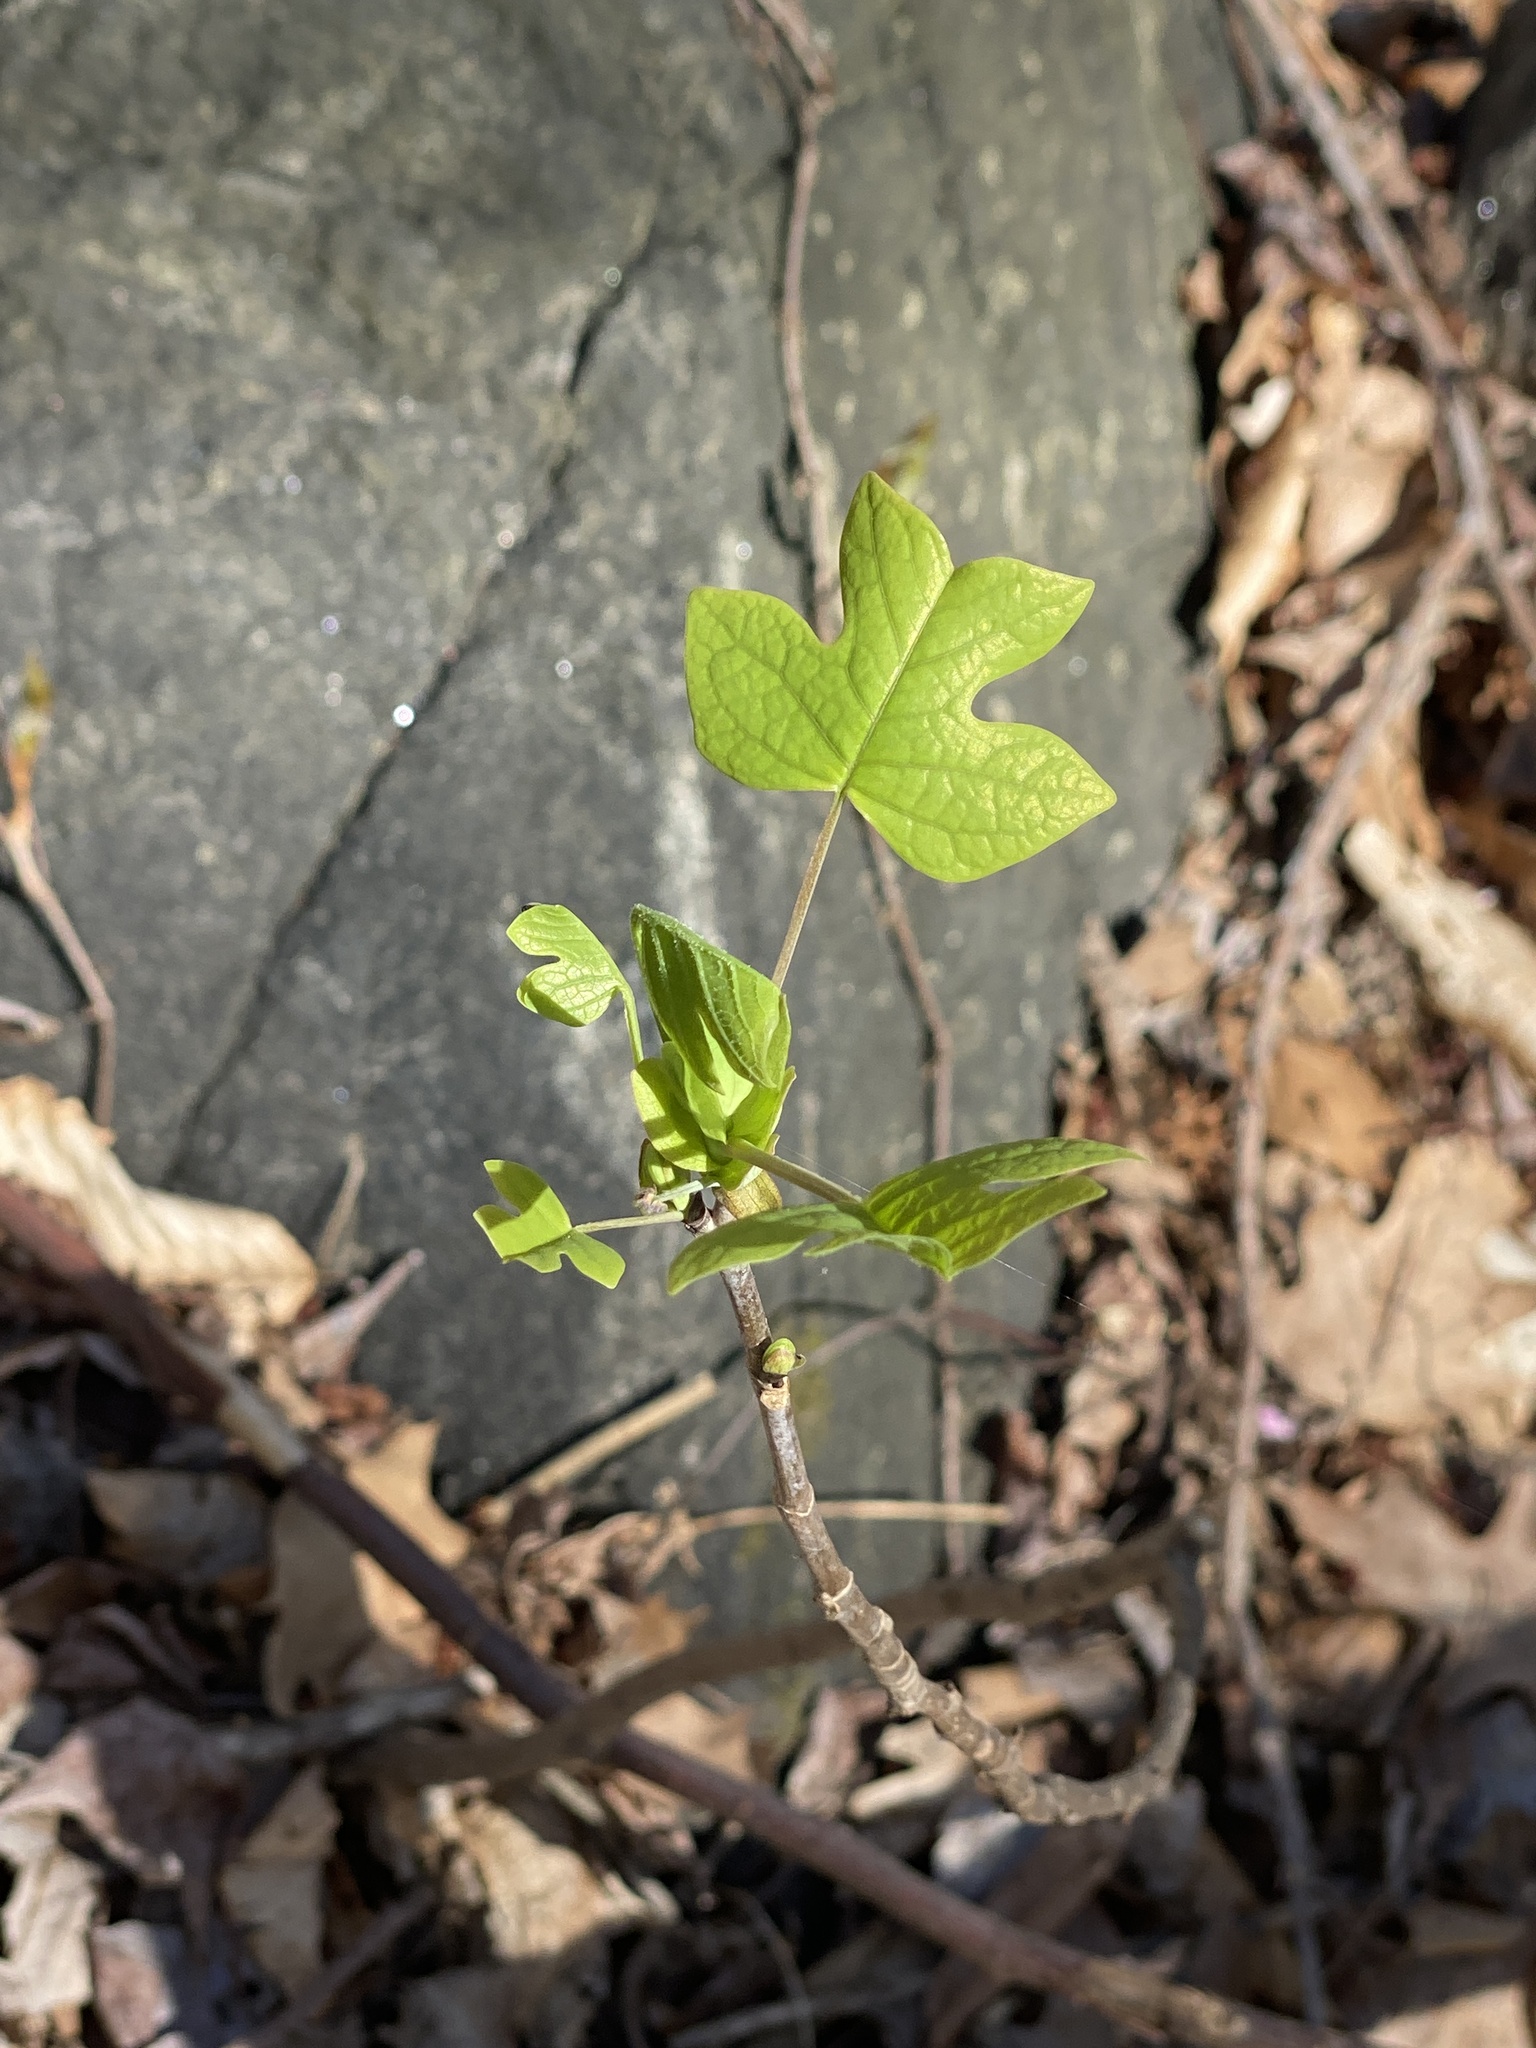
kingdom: Plantae
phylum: Tracheophyta
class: Magnoliopsida
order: Magnoliales
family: Magnoliaceae
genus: Liriodendron
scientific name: Liriodendron tulipifera
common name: Tulip tree
